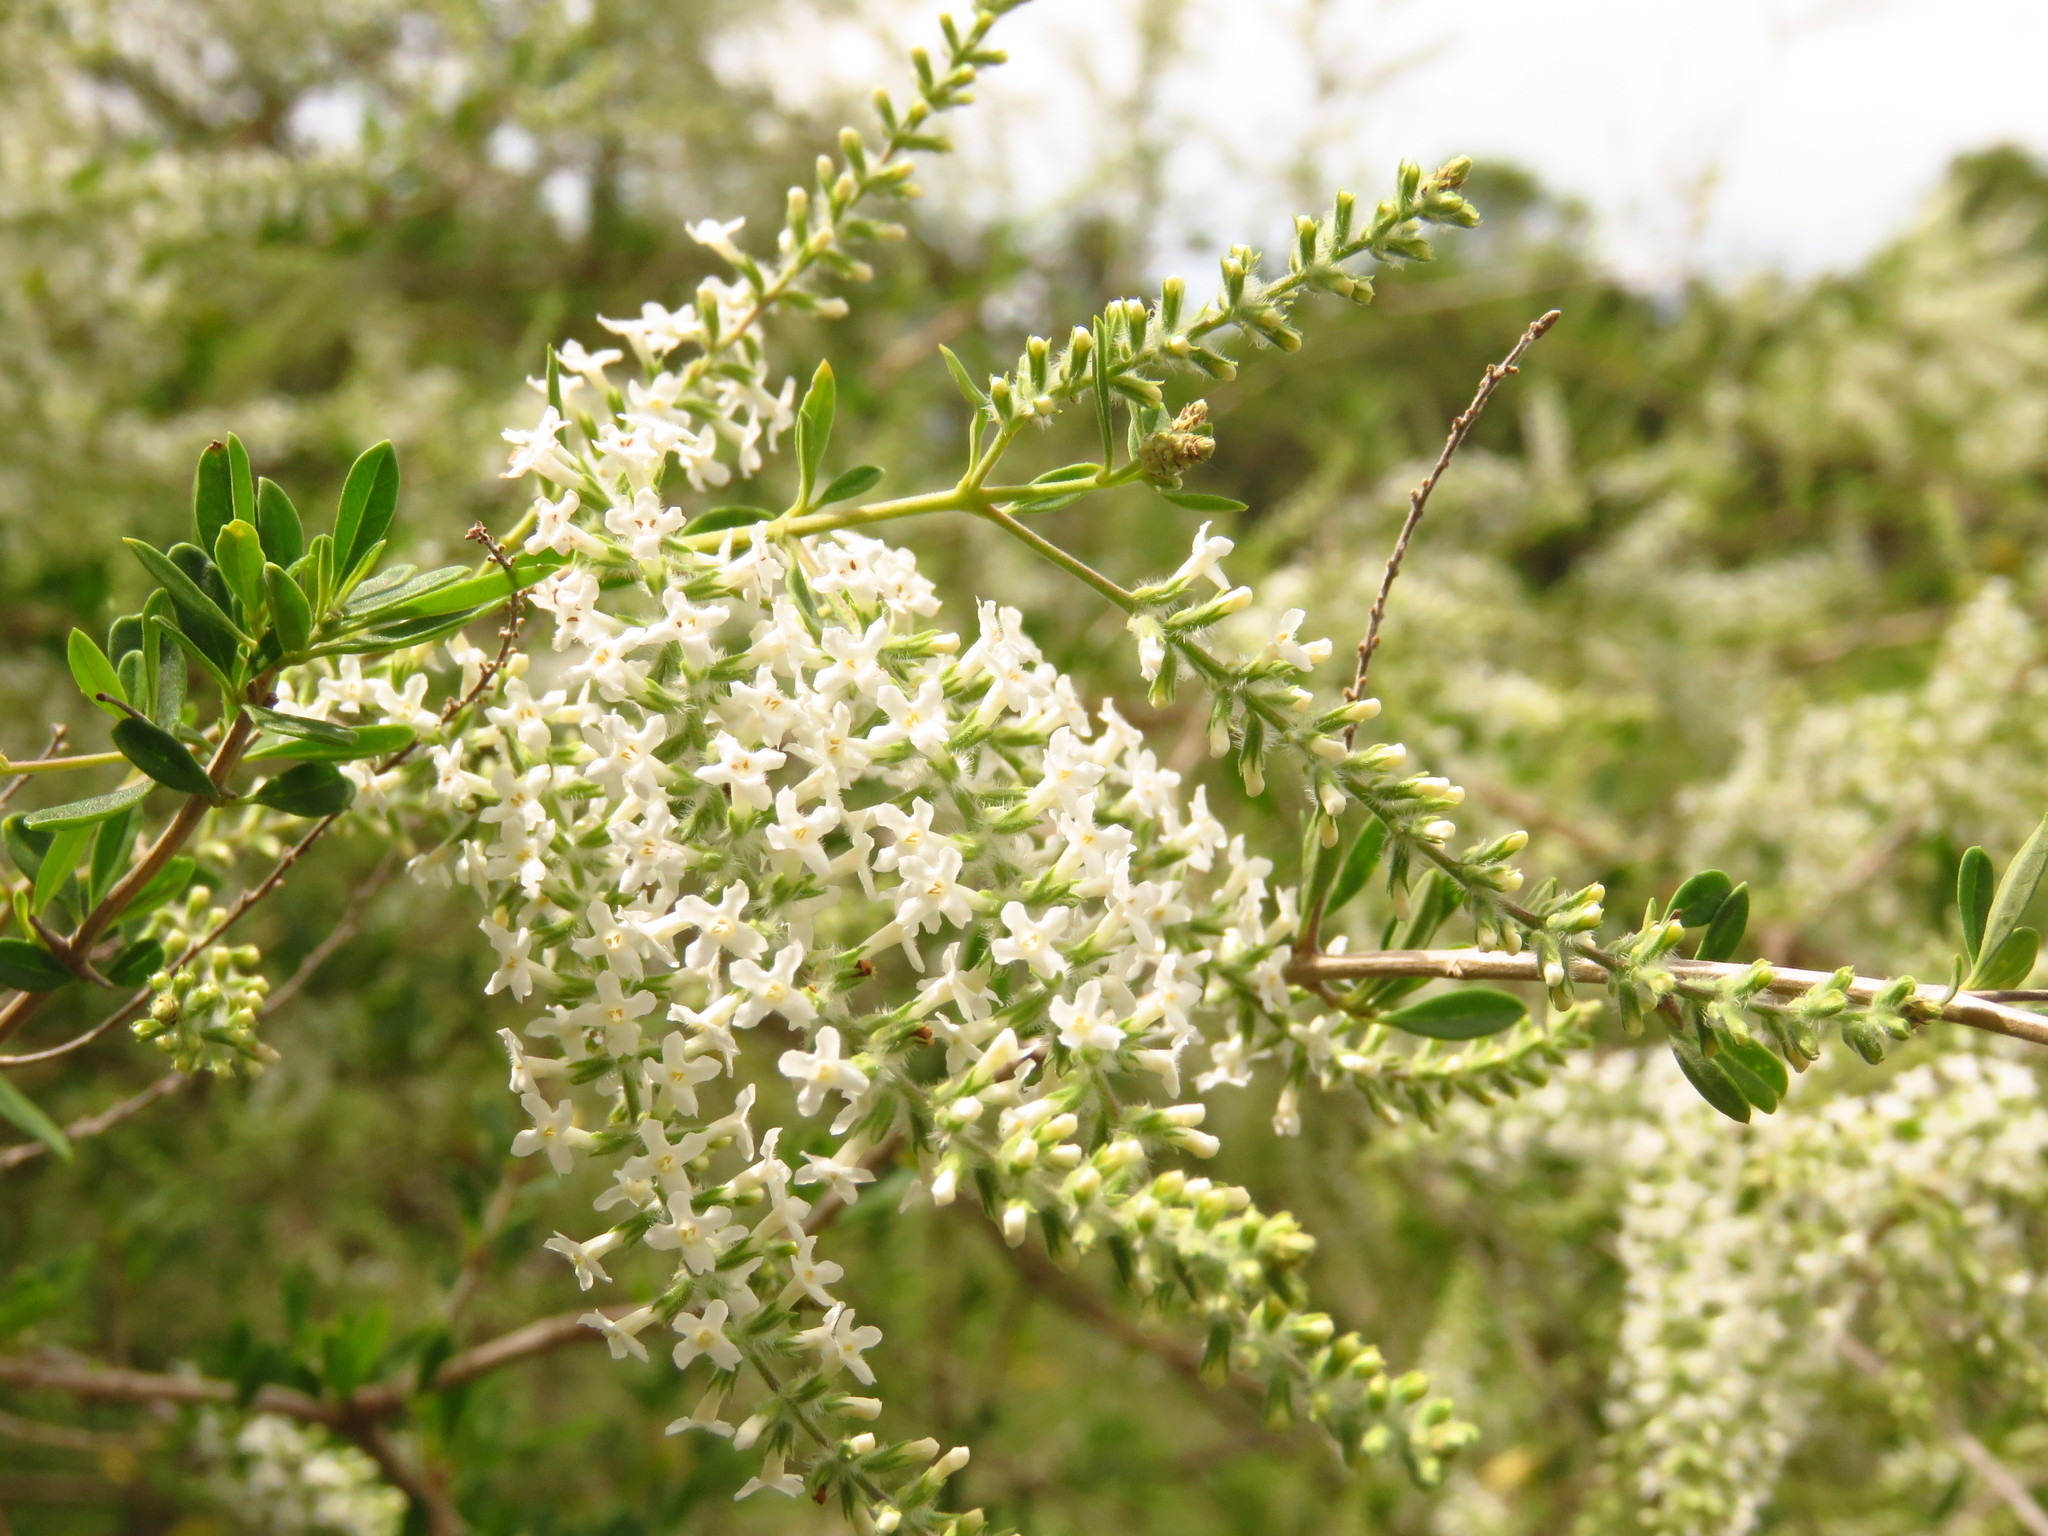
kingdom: Plantae
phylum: Tracheophyta
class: Magnoliopsida
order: Lamiales
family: Verbenaceae
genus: Aloysia
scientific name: Aloysia gratissima
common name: Common bee-brush
